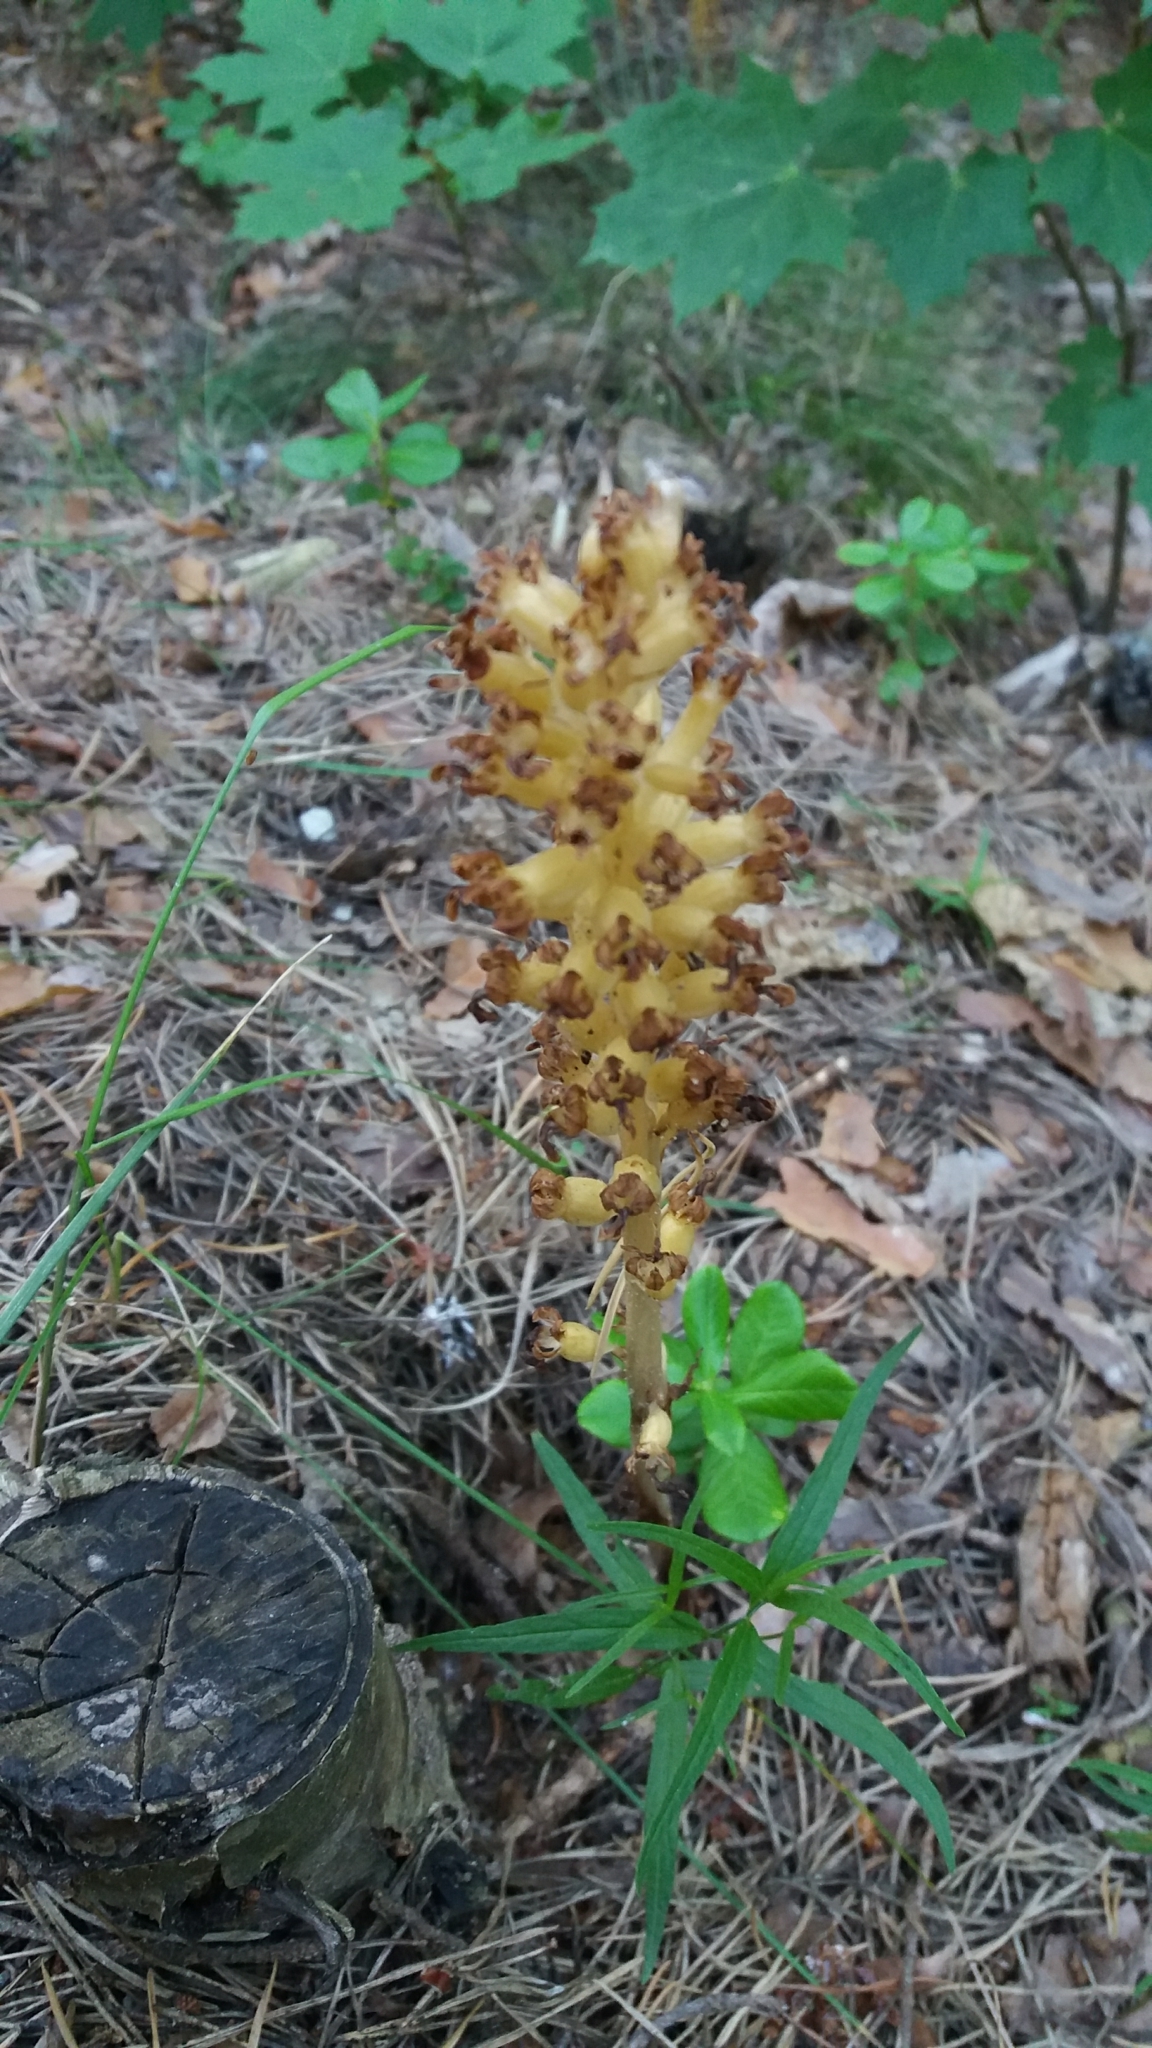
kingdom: Plantae
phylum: Tracheophyta
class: Liliopsida
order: Asparagales
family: Orchidaceae
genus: Neottia
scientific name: Neottia nidus-avis
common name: Bird's-nest orchid
